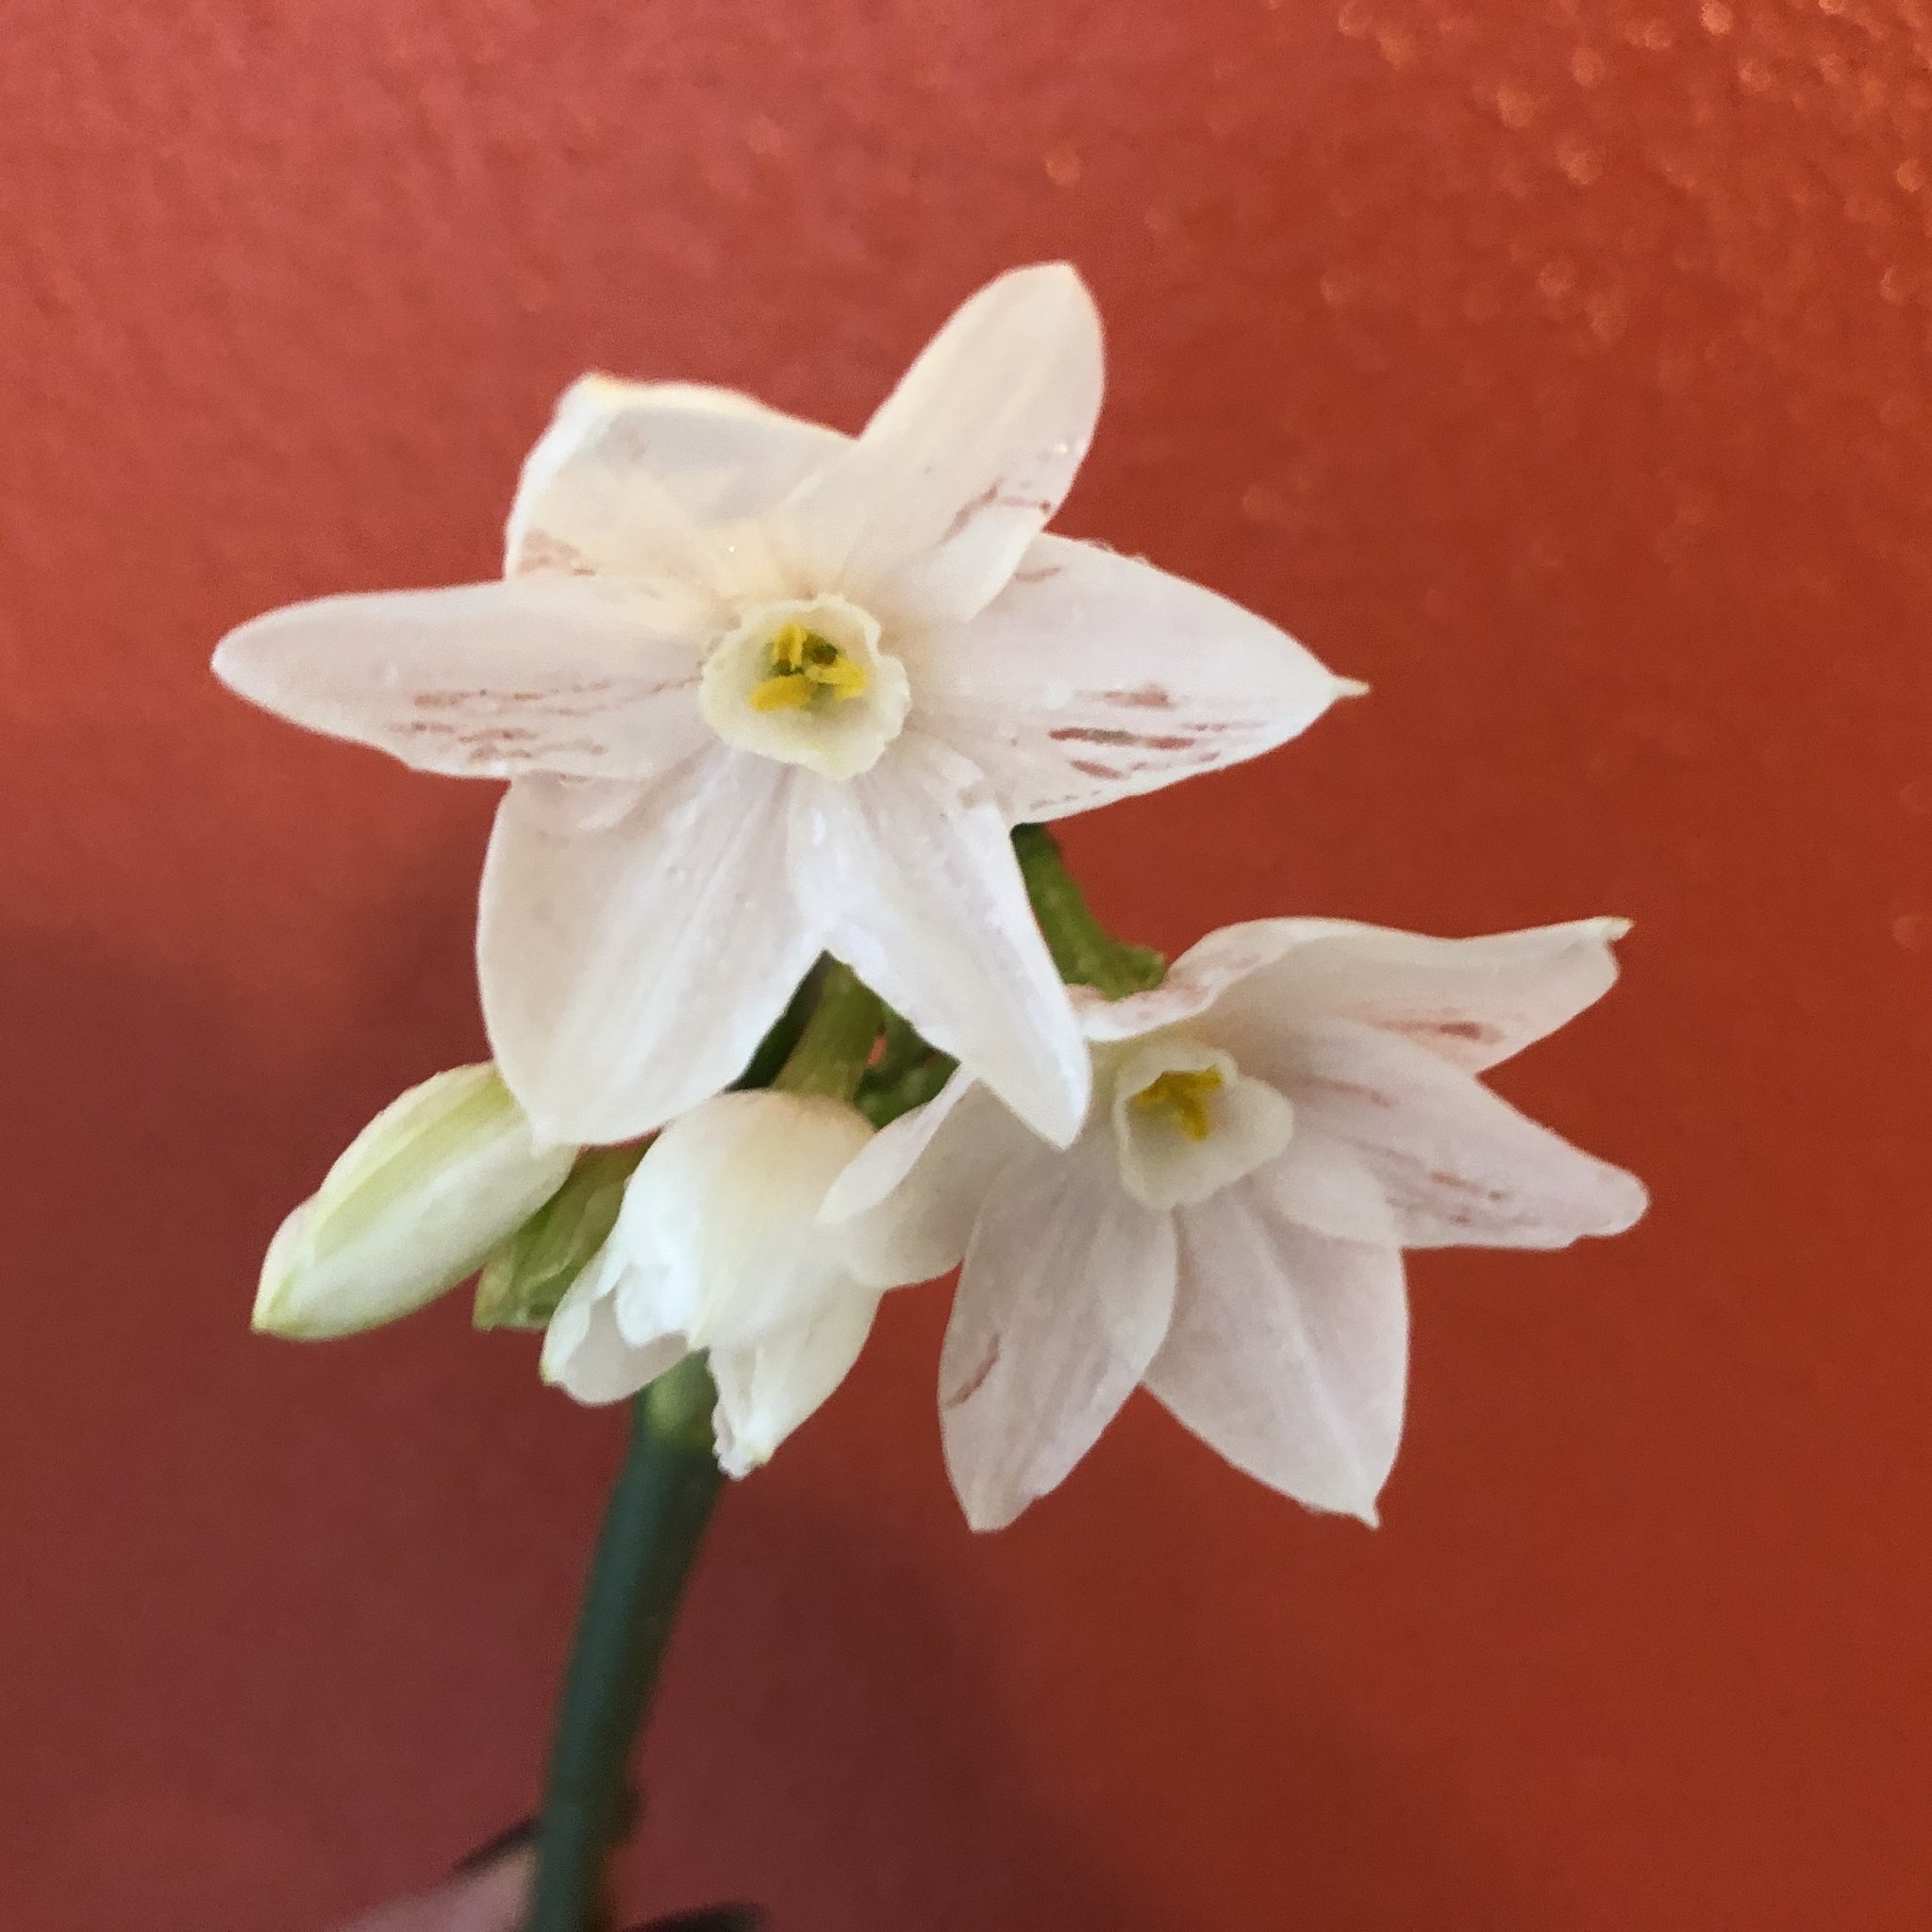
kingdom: Plantae
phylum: Tracheophyta
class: Liliopsida
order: Asparagales
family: Amaryllidaceae
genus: Narcissus
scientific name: Narcissus papyraceus
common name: Paper-white daffodil
